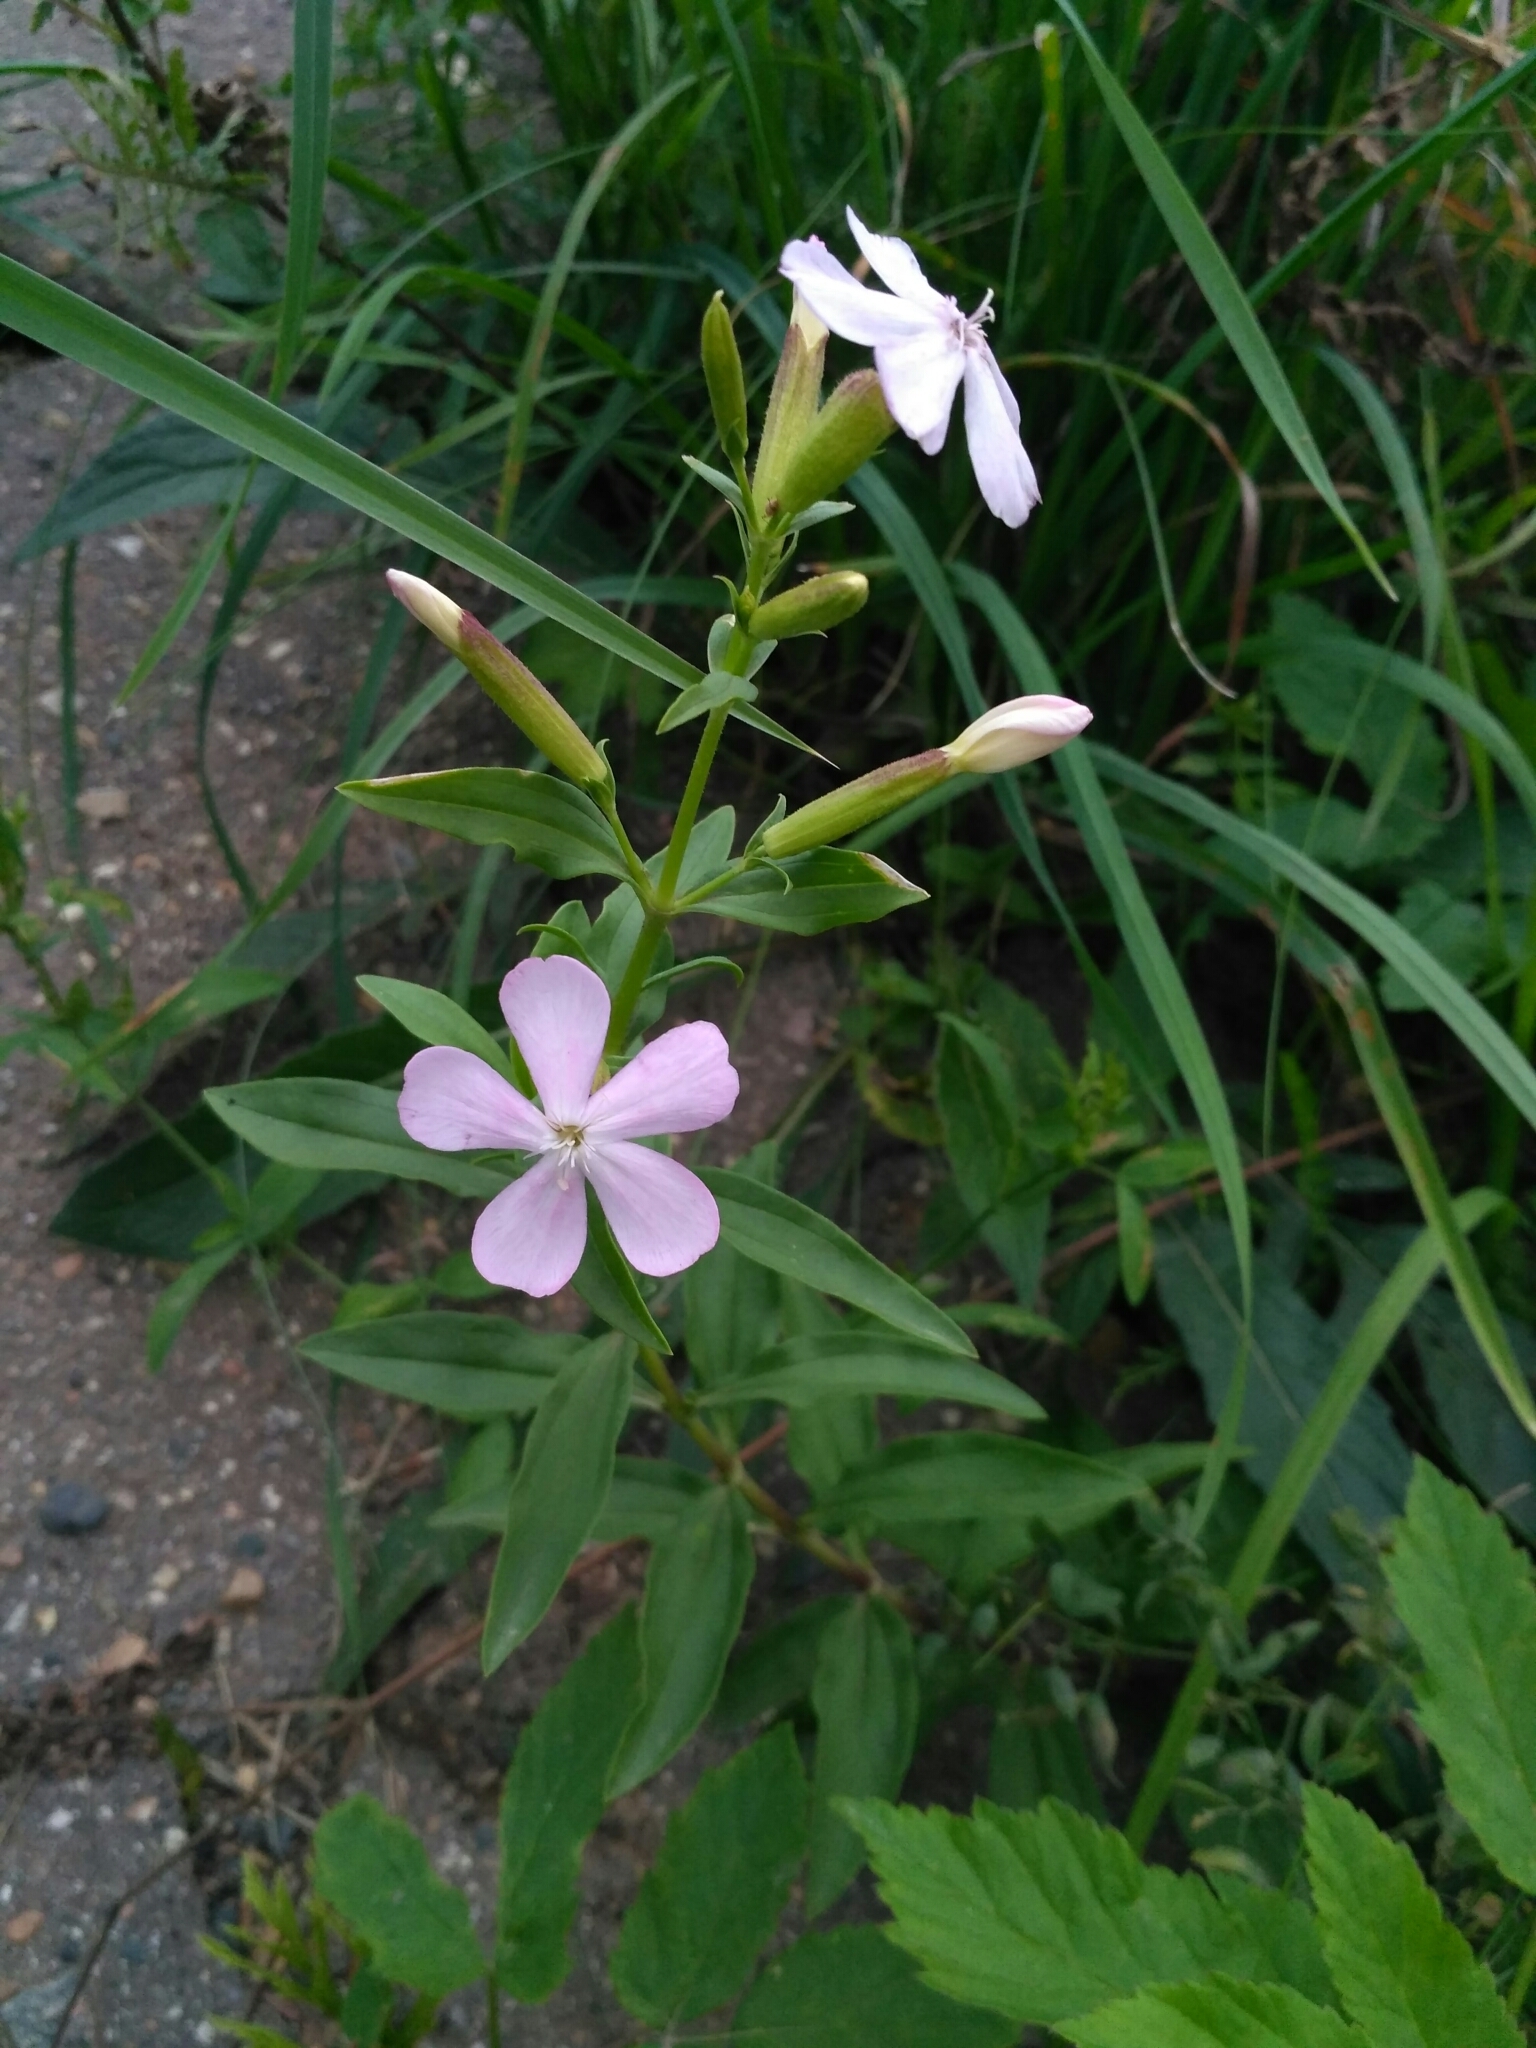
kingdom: Plantae
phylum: Tracheophyta
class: Magnoliopsida
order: Caryophyllales
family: Caryophyllaceae
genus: Saponaria
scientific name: Saponaria officinalis
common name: Soapwort
